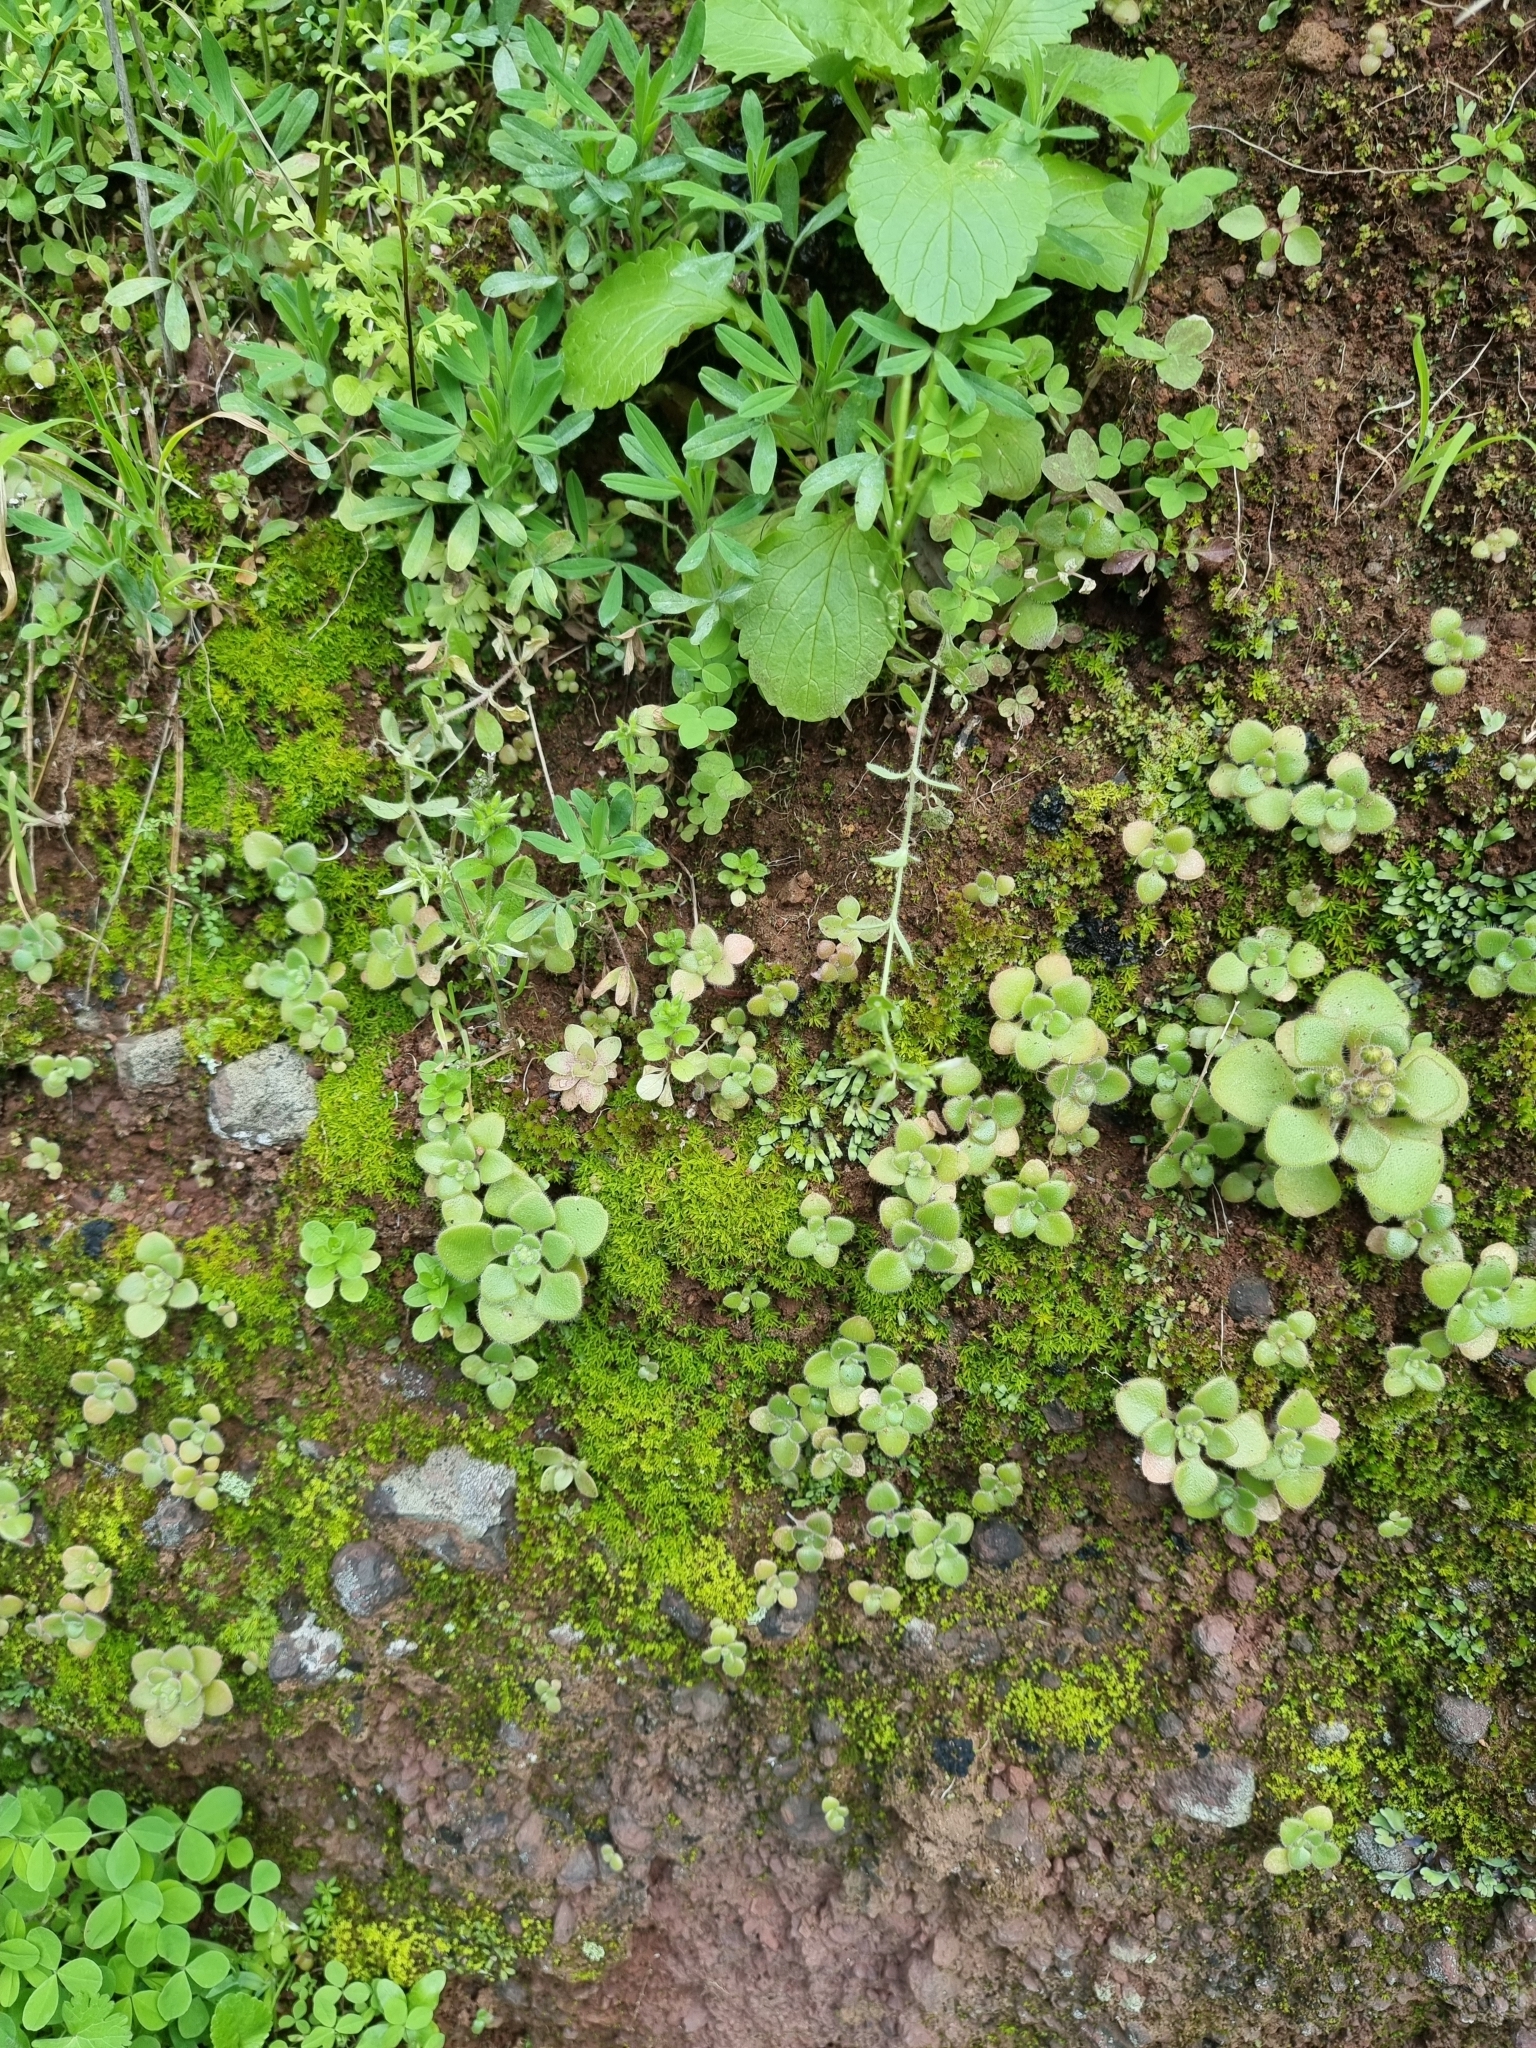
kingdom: Plantae
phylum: Tracheophyta
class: Magnoliopsida
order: Saxifragales
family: Crassulaceae
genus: Aichryson
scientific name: Aichryson villosum
